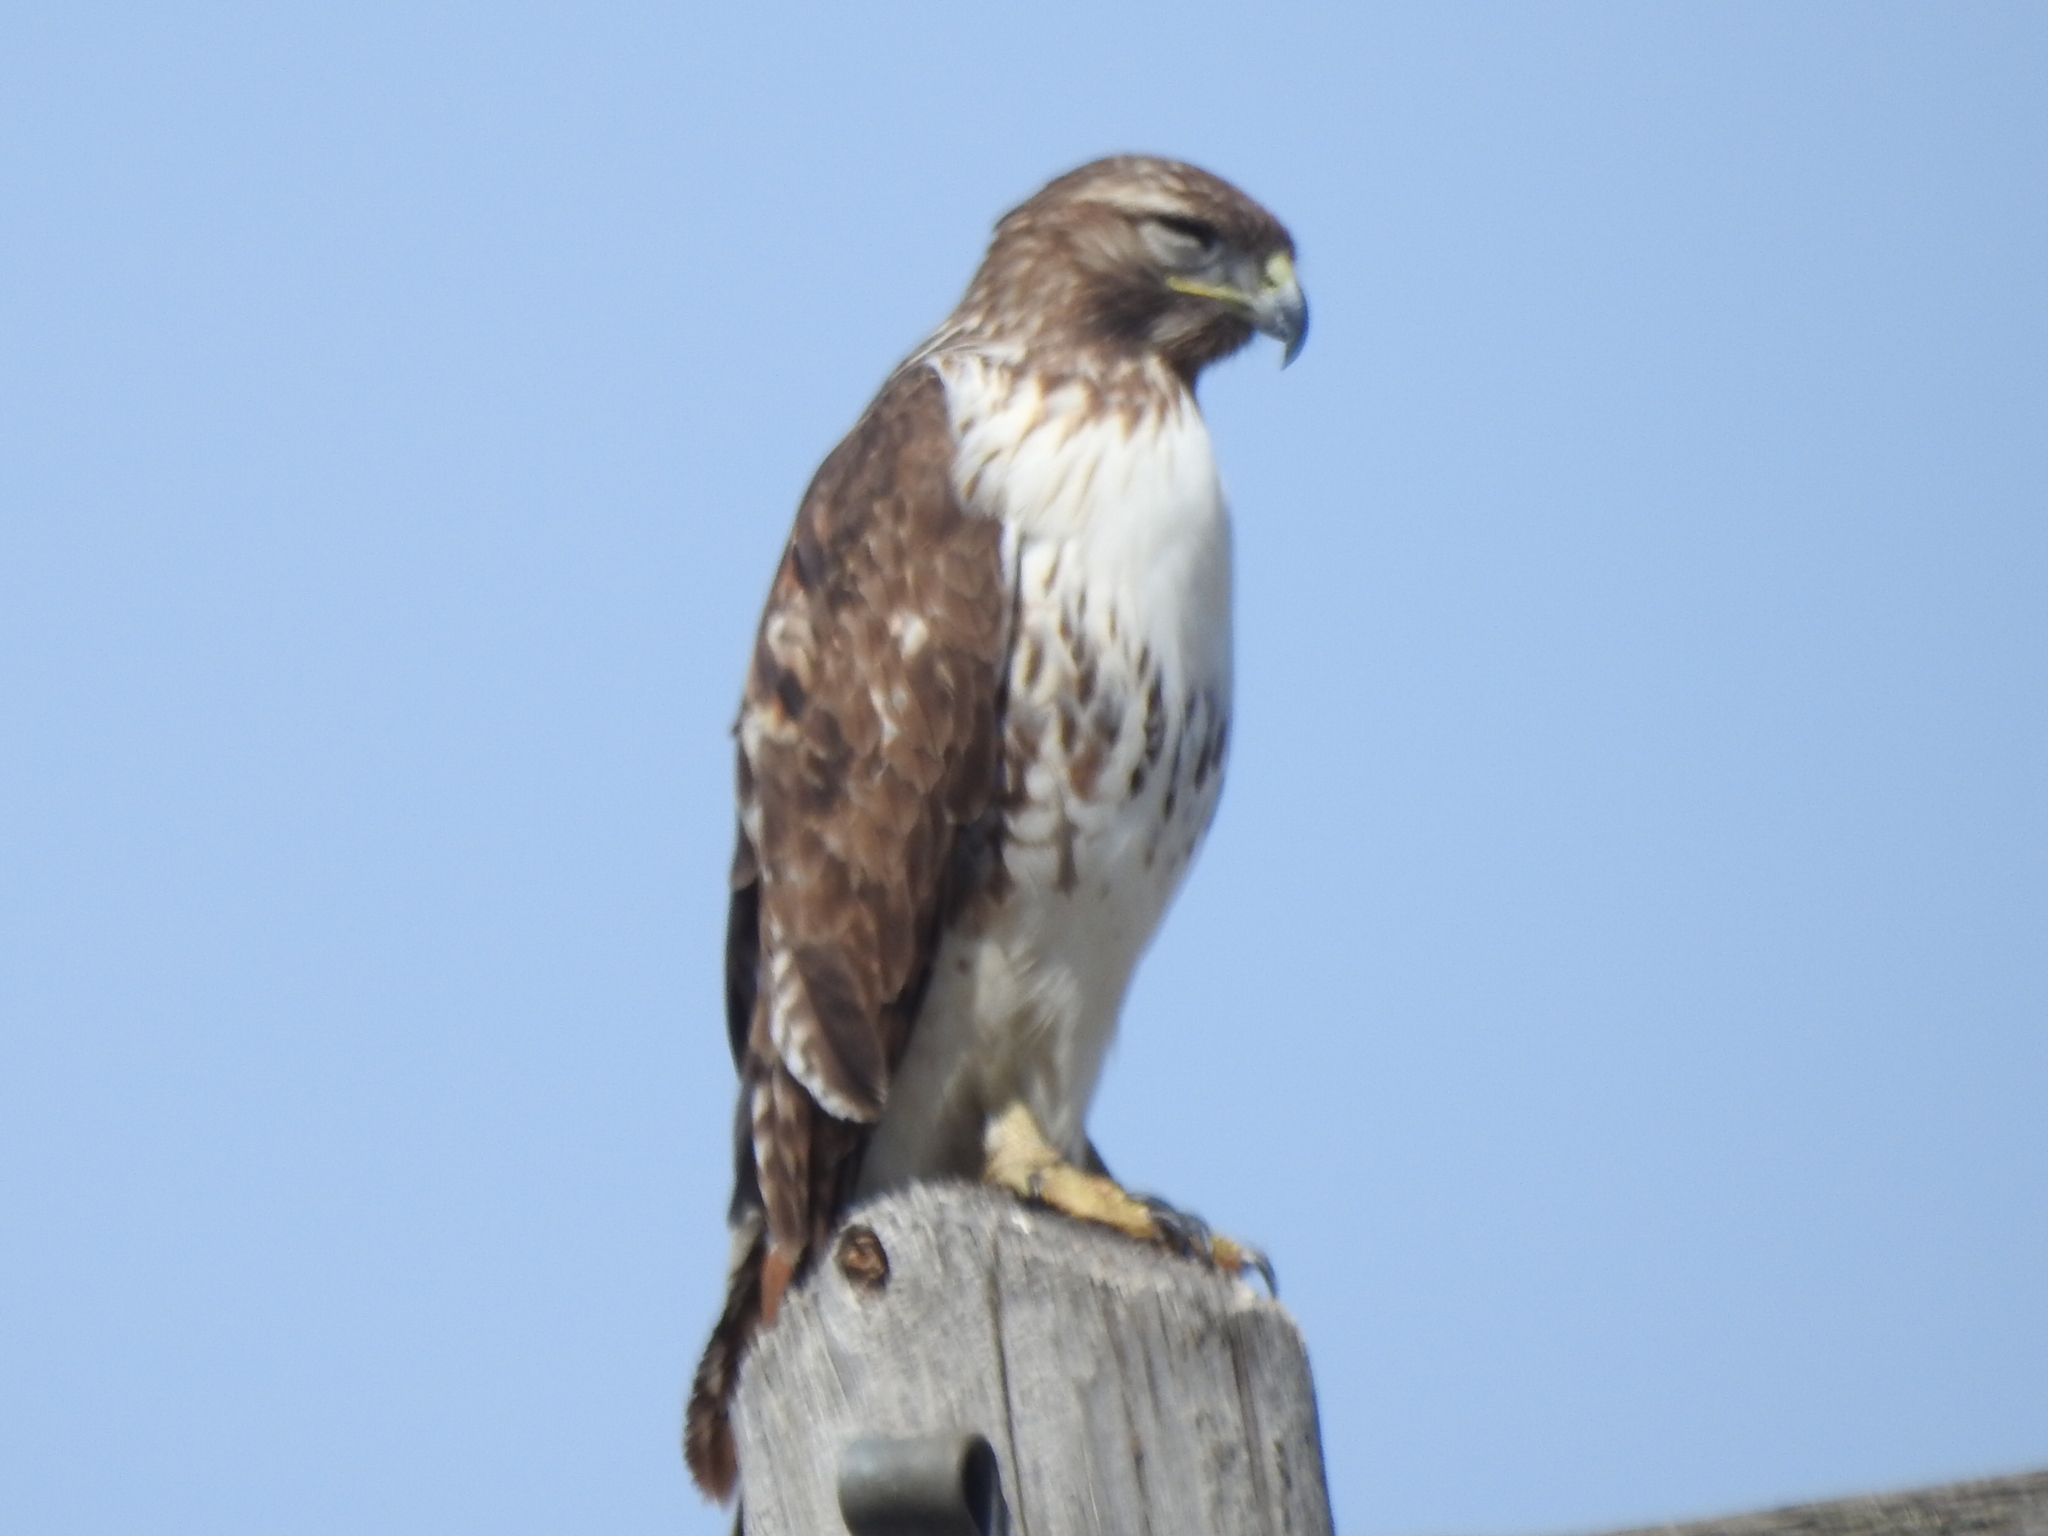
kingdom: Animalia
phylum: Chordata
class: Aves
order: Accipitriformes
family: Accipitridae
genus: Buteo
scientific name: Buteo jamaicensis
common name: Red-tailed hawk
